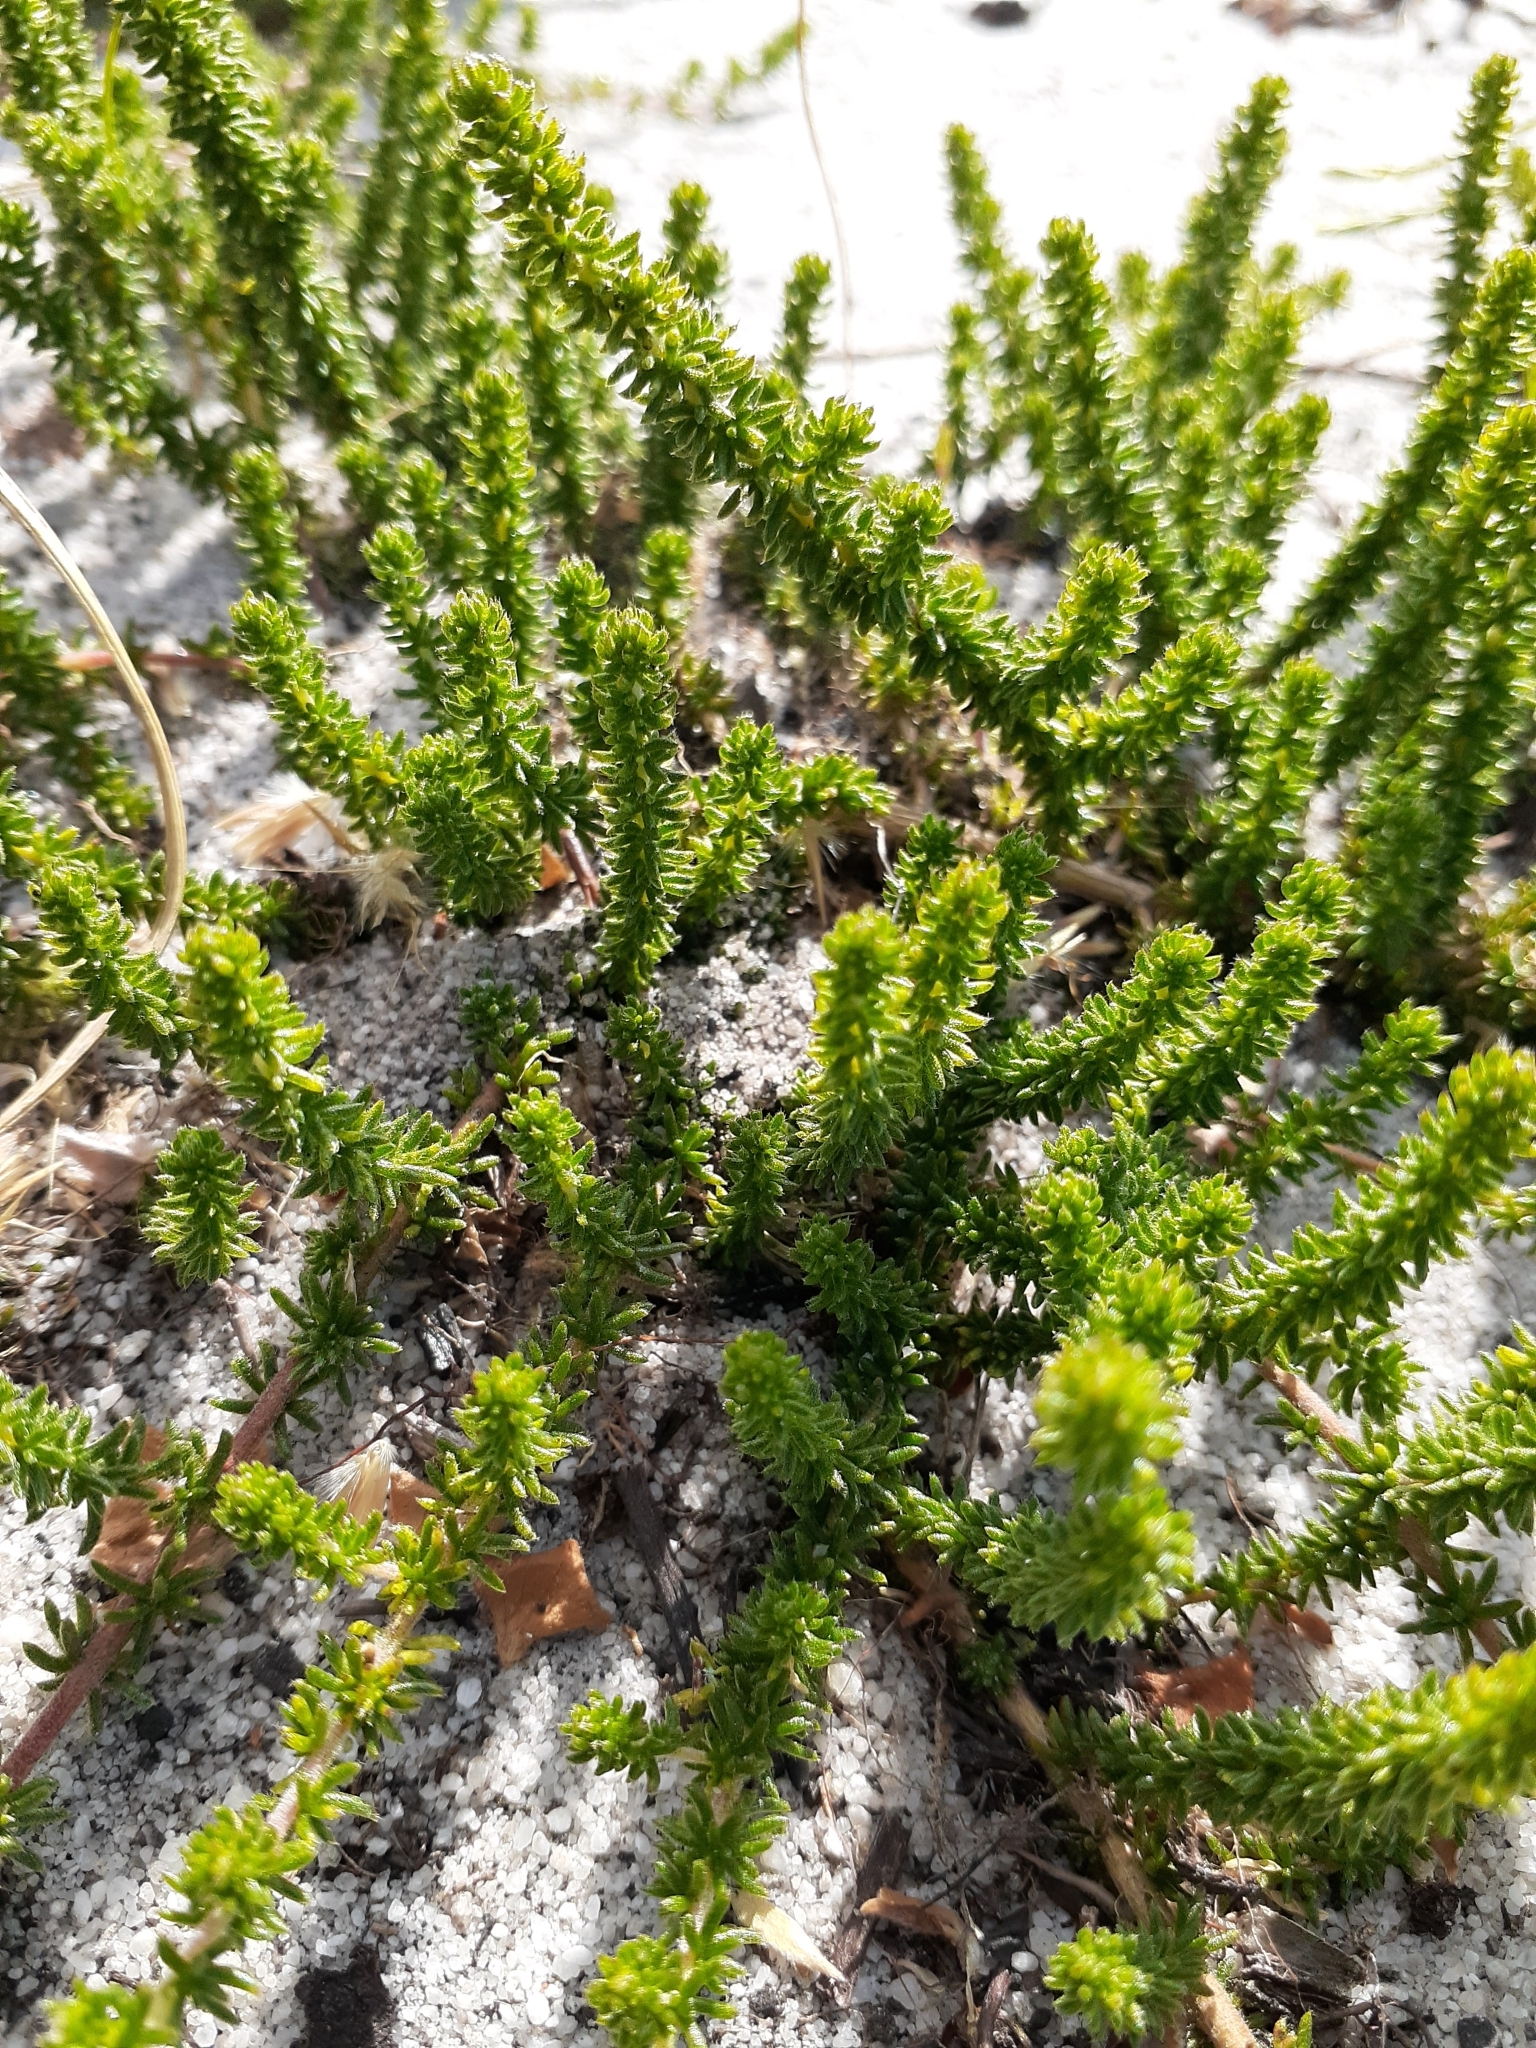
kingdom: Plantae
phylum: Tracheophyta
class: Magnoliopsida
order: Fabales
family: Fabaceae
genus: Aspalathus
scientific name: Aspalathus retroflexa
